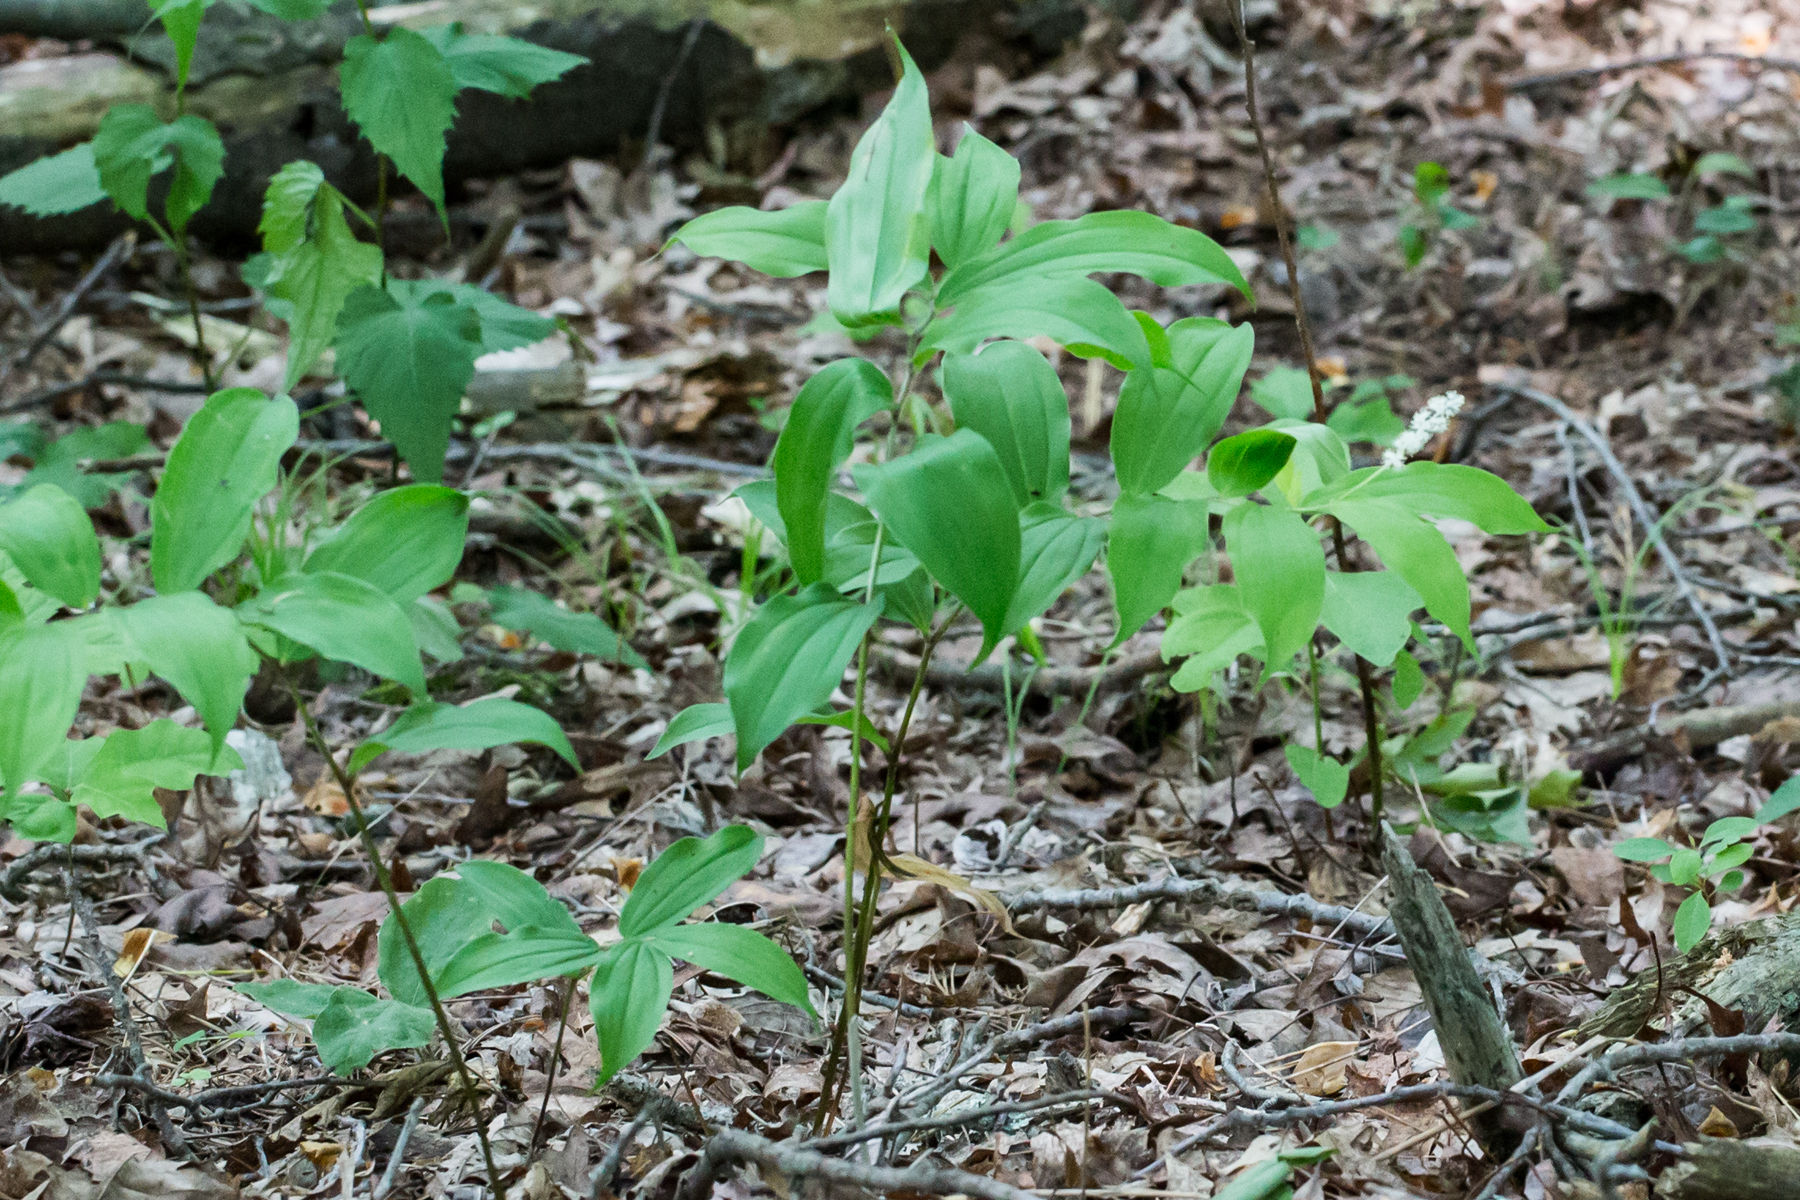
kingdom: Plantae
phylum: Tracheophyta
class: Liliopsida
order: Asparagales
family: Asparagaceae
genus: Maianthemum
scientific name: Maianthemum racemosum
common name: False spikenard
